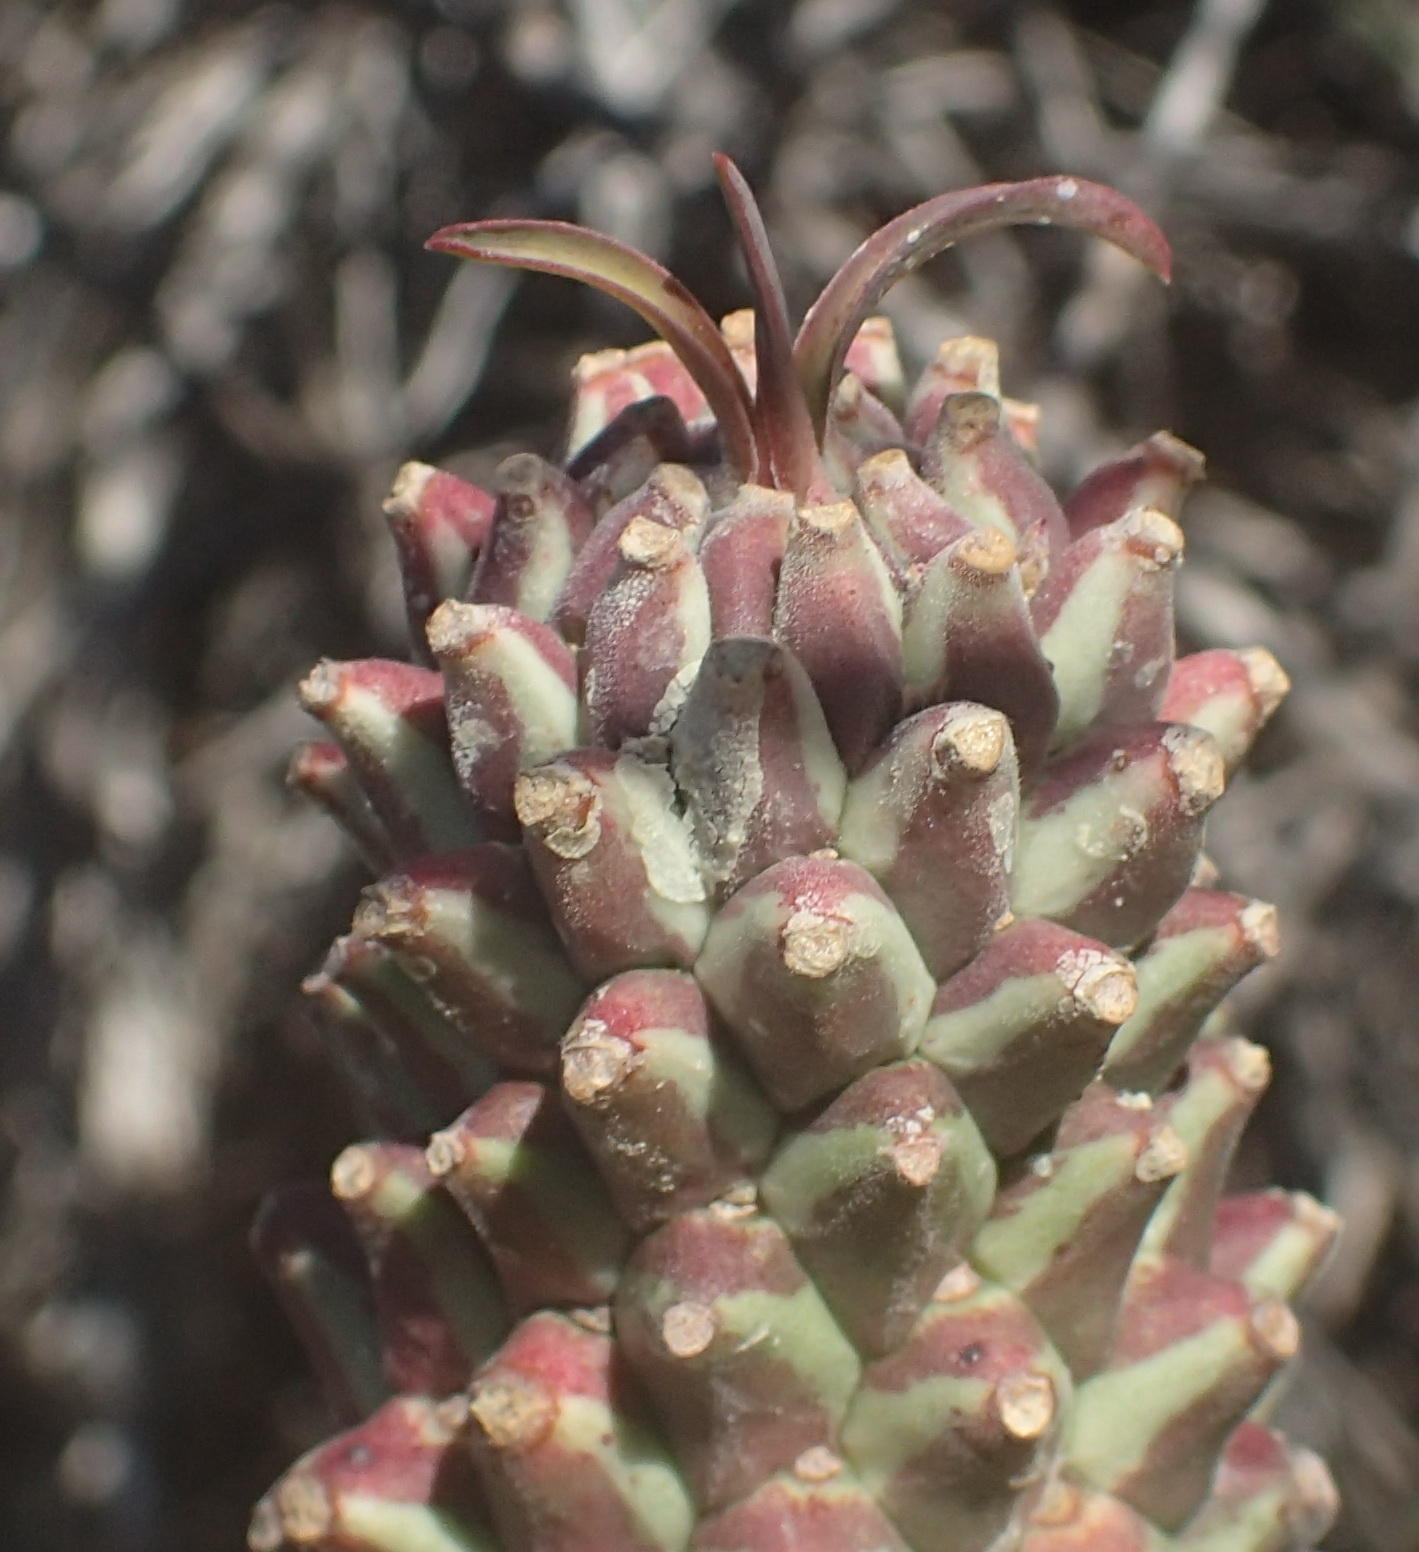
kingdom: Plantae
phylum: Tracheophyta
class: Magnoliopsida
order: Malpighiales
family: Euphorbiaceae
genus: Euphorbia
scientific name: Euphorbia clandestina
